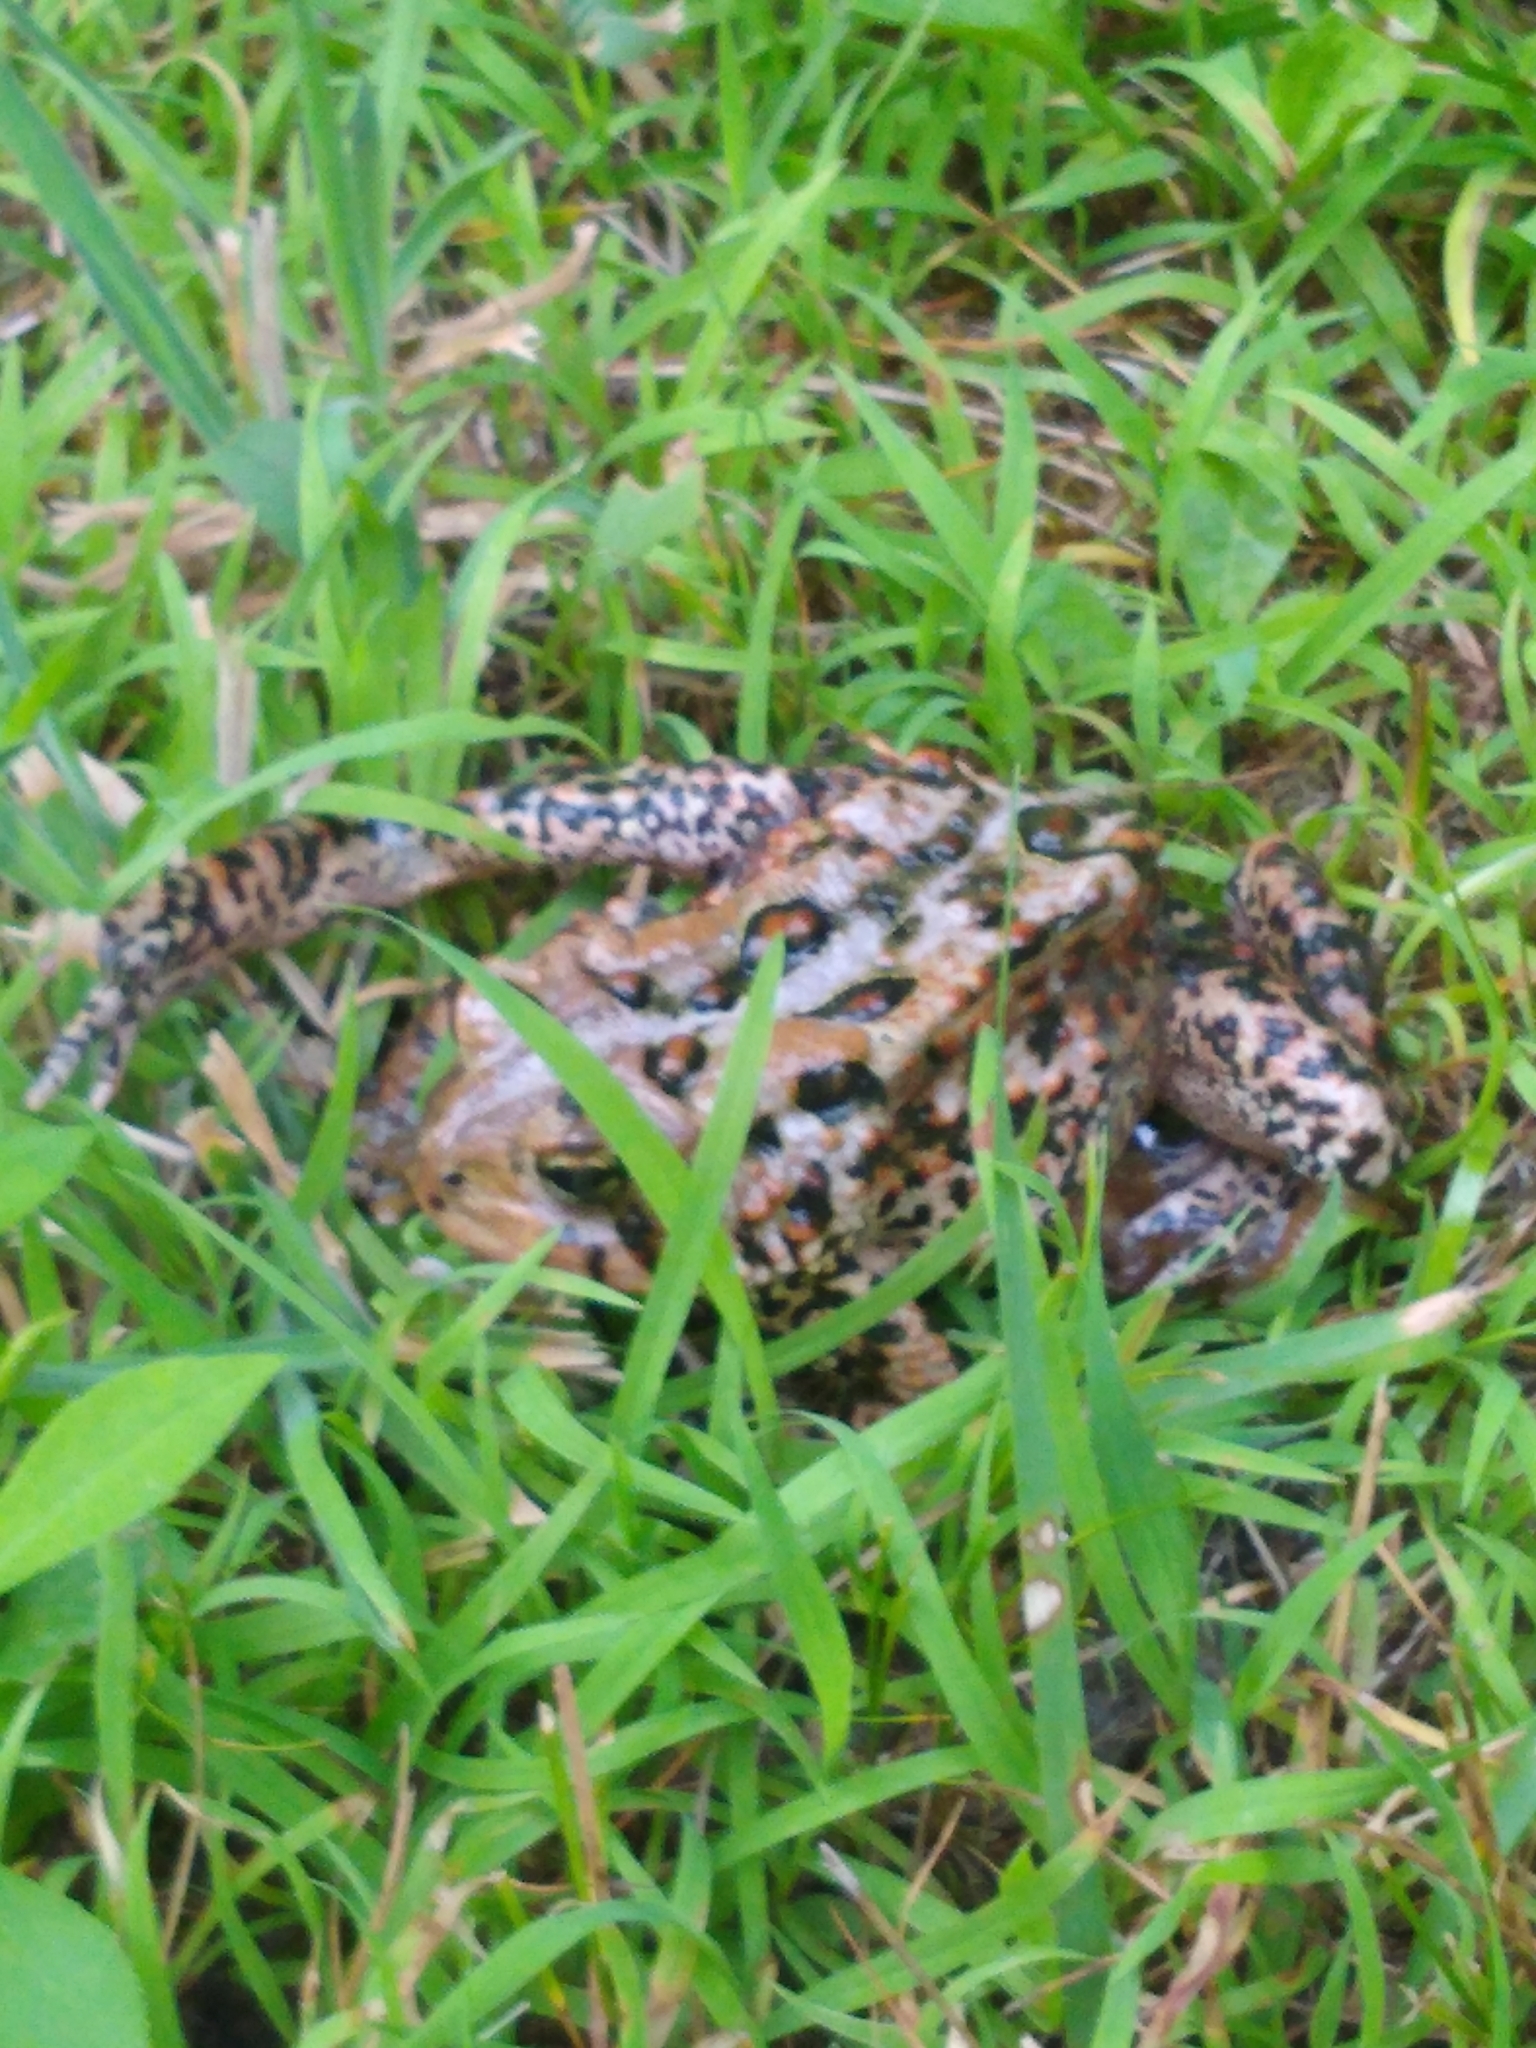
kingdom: Animalia
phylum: Chordata
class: Amphibia
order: Anura
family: Bufonidae
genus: Anaxyrus
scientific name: Anaxyrus americanus
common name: American toad
